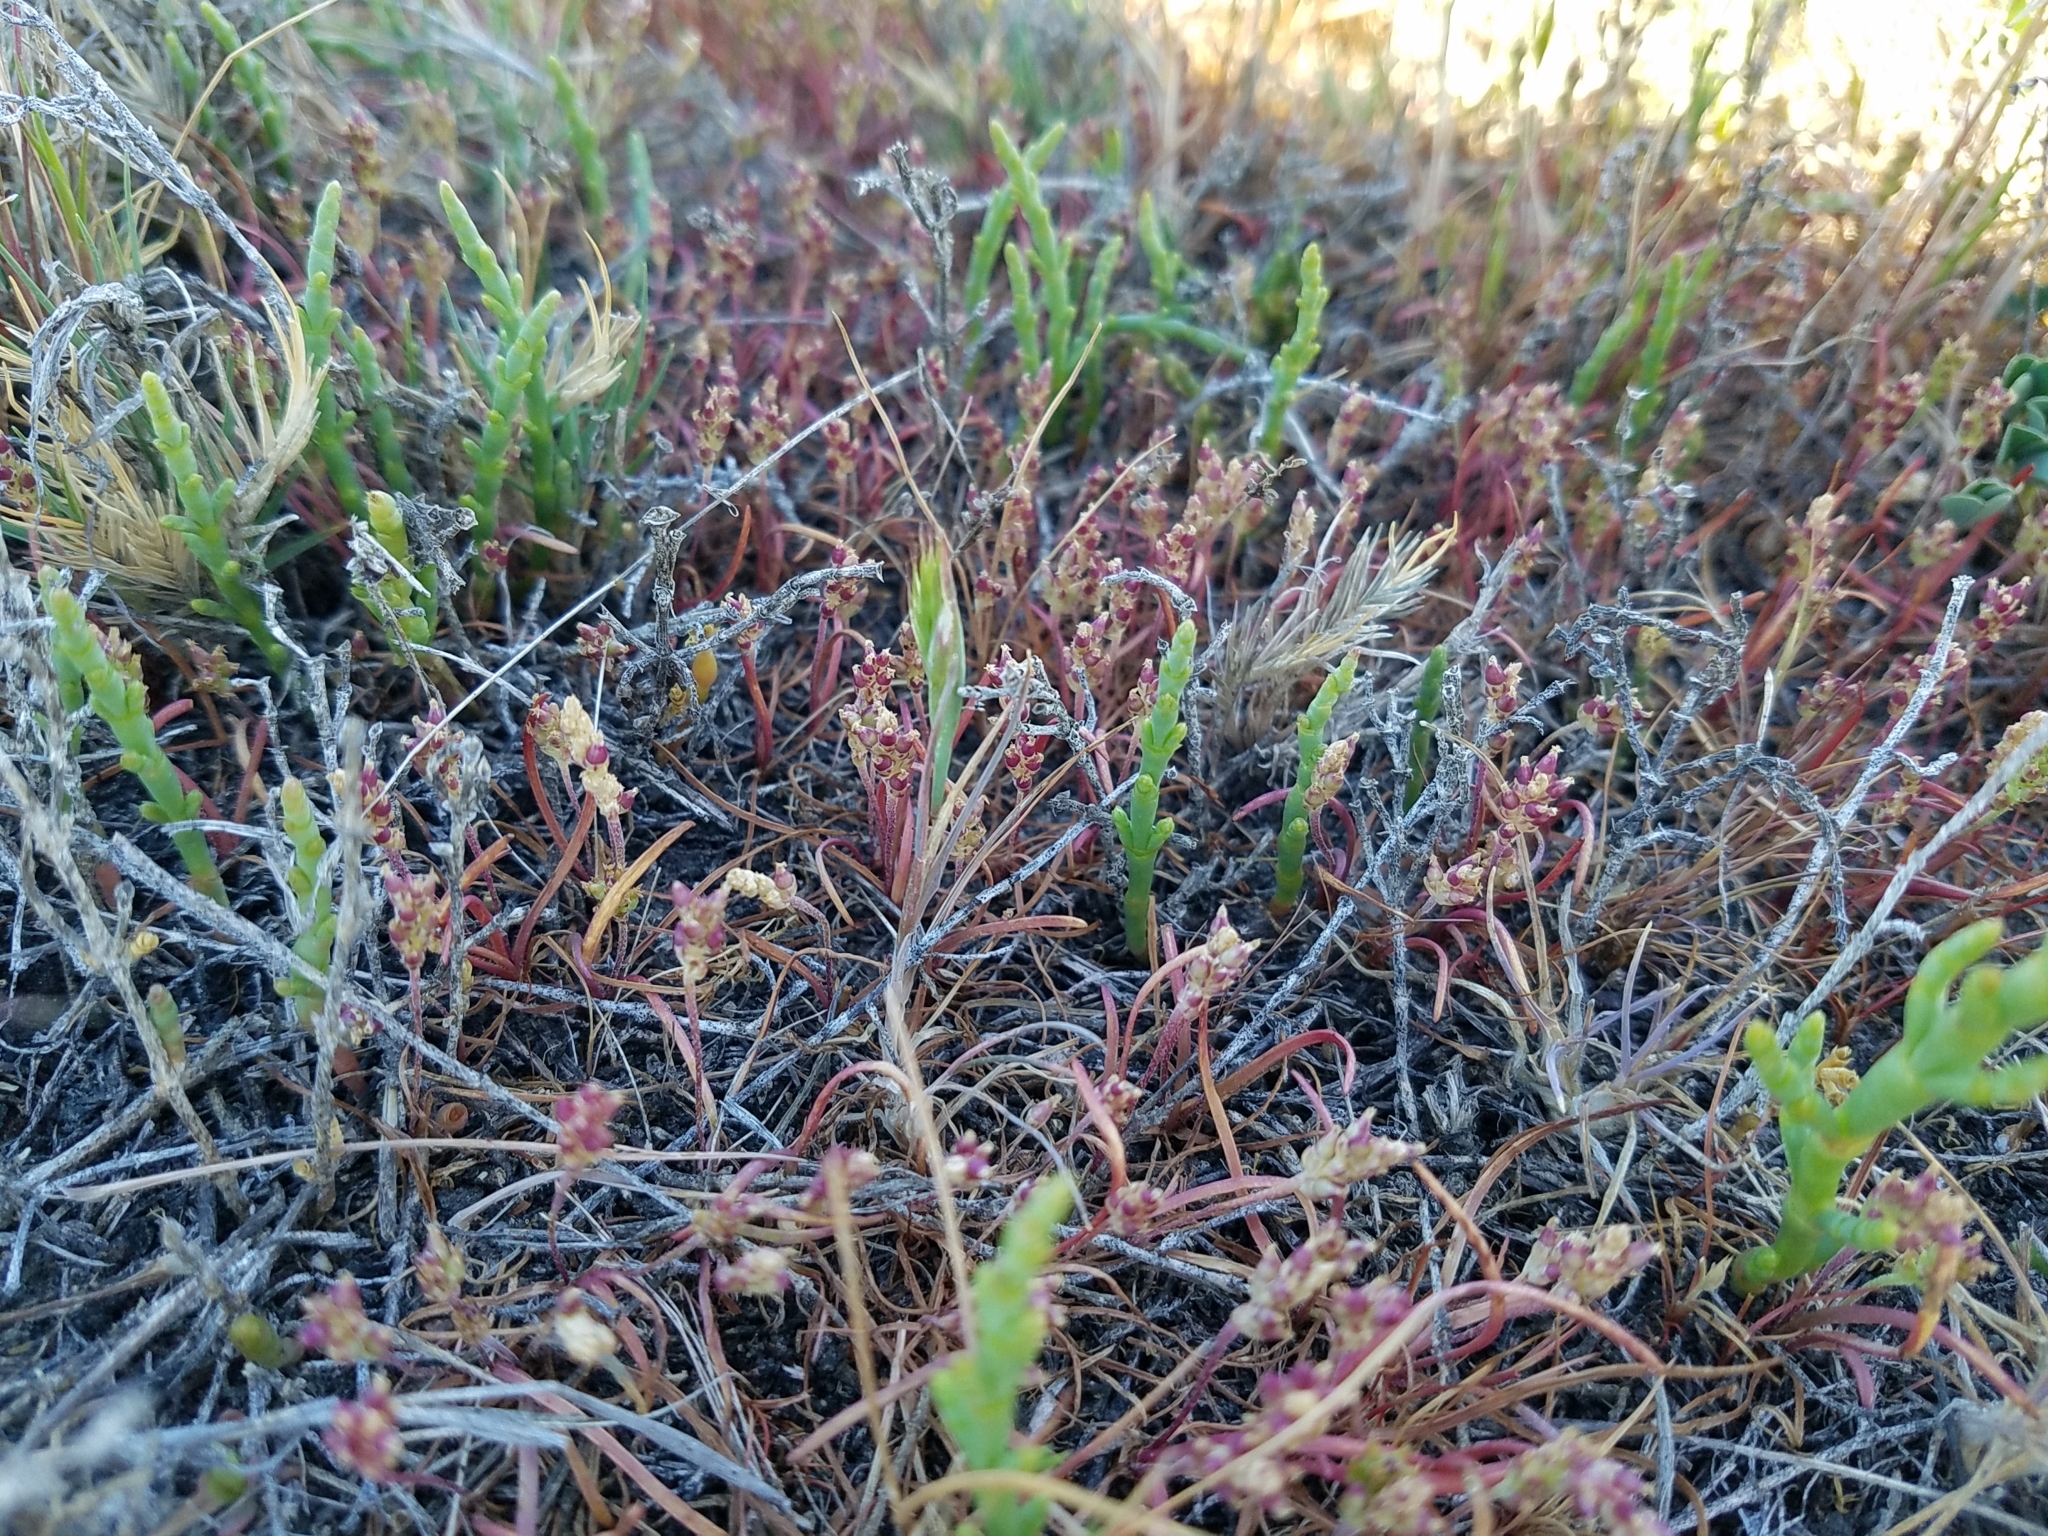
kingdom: Plantae
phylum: Tracheophyta
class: Magnoliopsida
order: Lamiales
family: Plantaginaceae
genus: Plantago
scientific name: Plantago elongata
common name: Linear-leaved plantain
